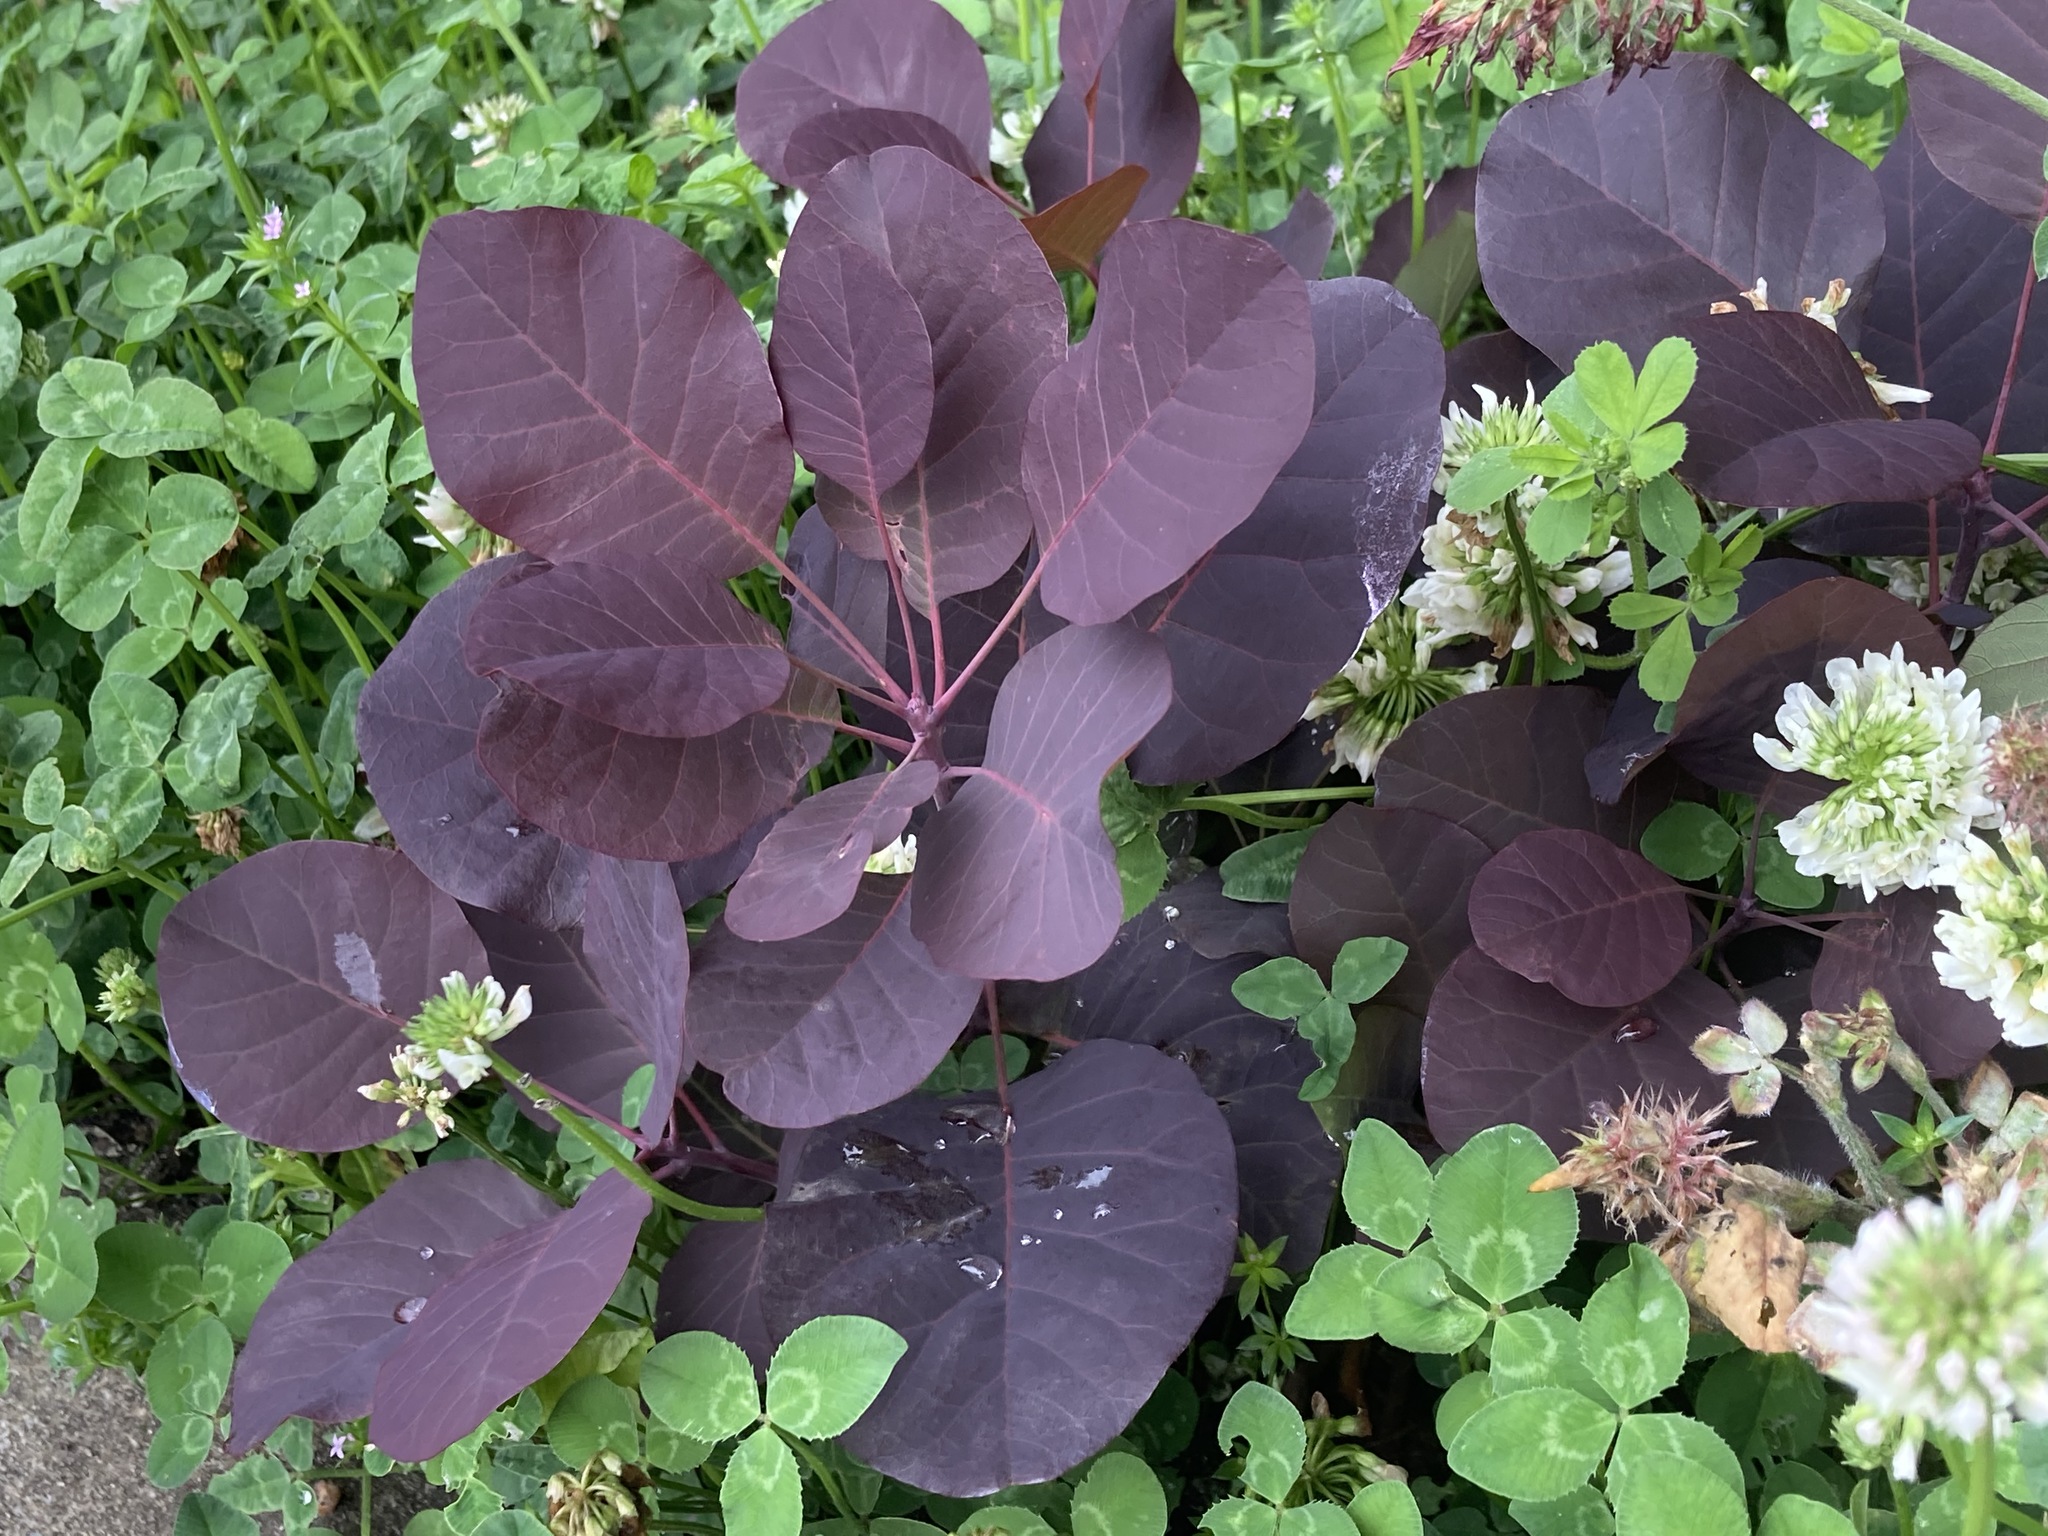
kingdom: Plantae
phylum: Tracheophyta
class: Magnoliopsida
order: Sapindales
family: Anacardiaceae
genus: Cotinus
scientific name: Cotinus coggygria
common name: Smoke-tree
